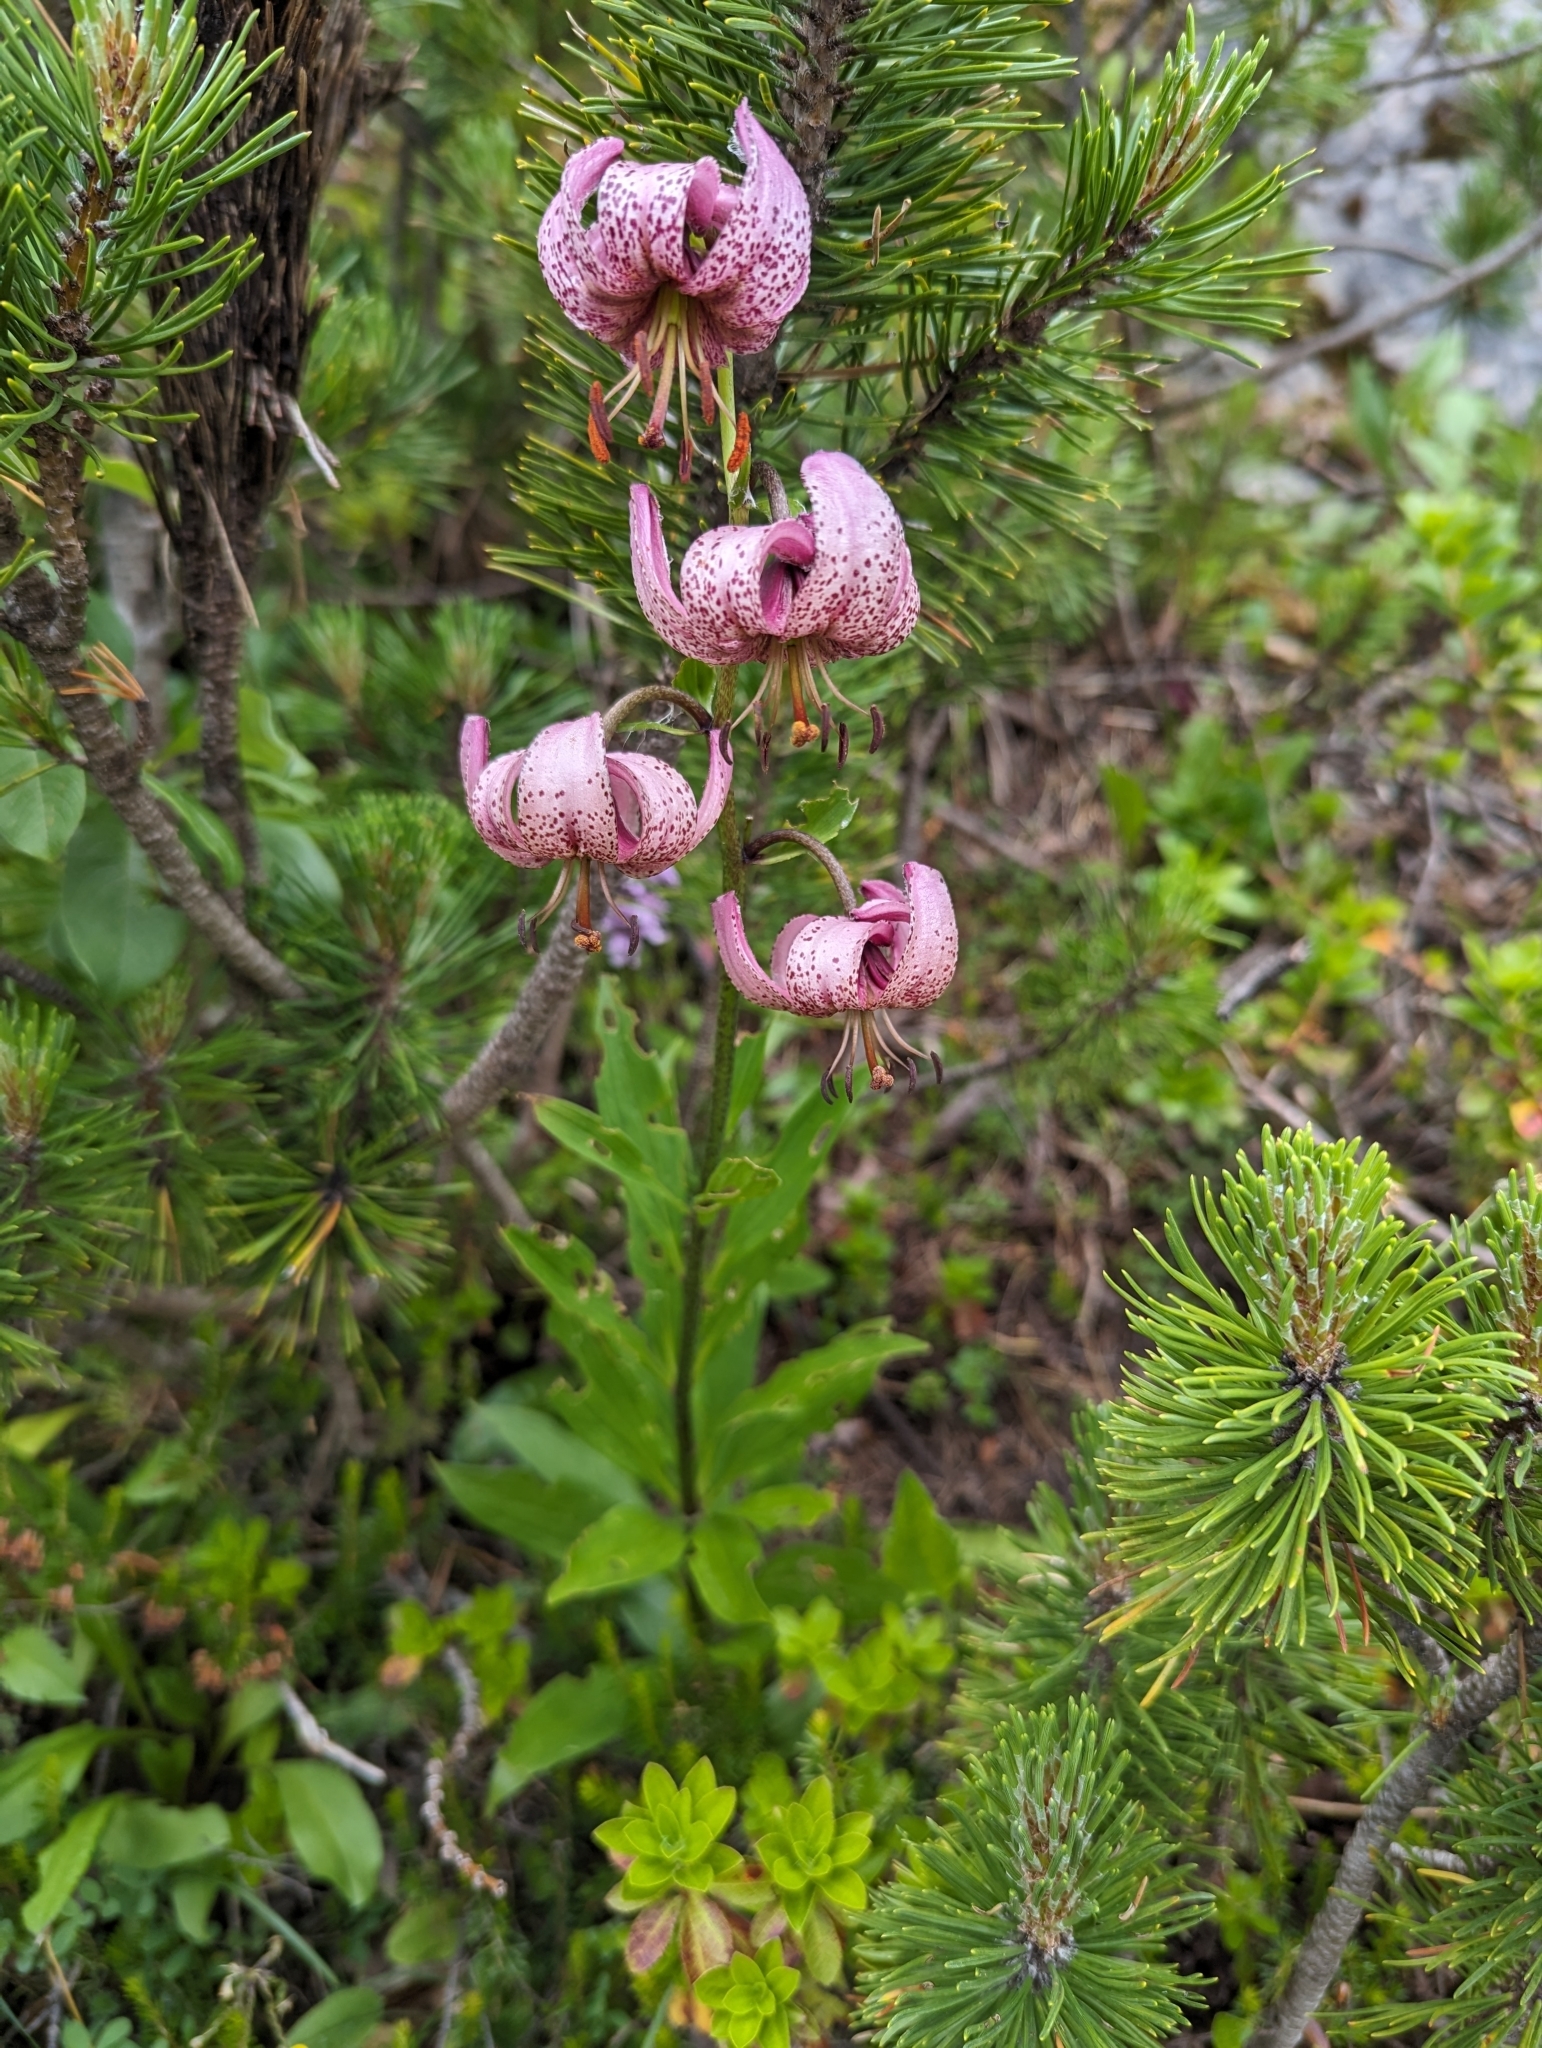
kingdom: Plantae
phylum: Tracheophyta
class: Liliopsida
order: Liliales
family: Liliaceae
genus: Lilium
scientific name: Lilium martagon
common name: Martagon lily
